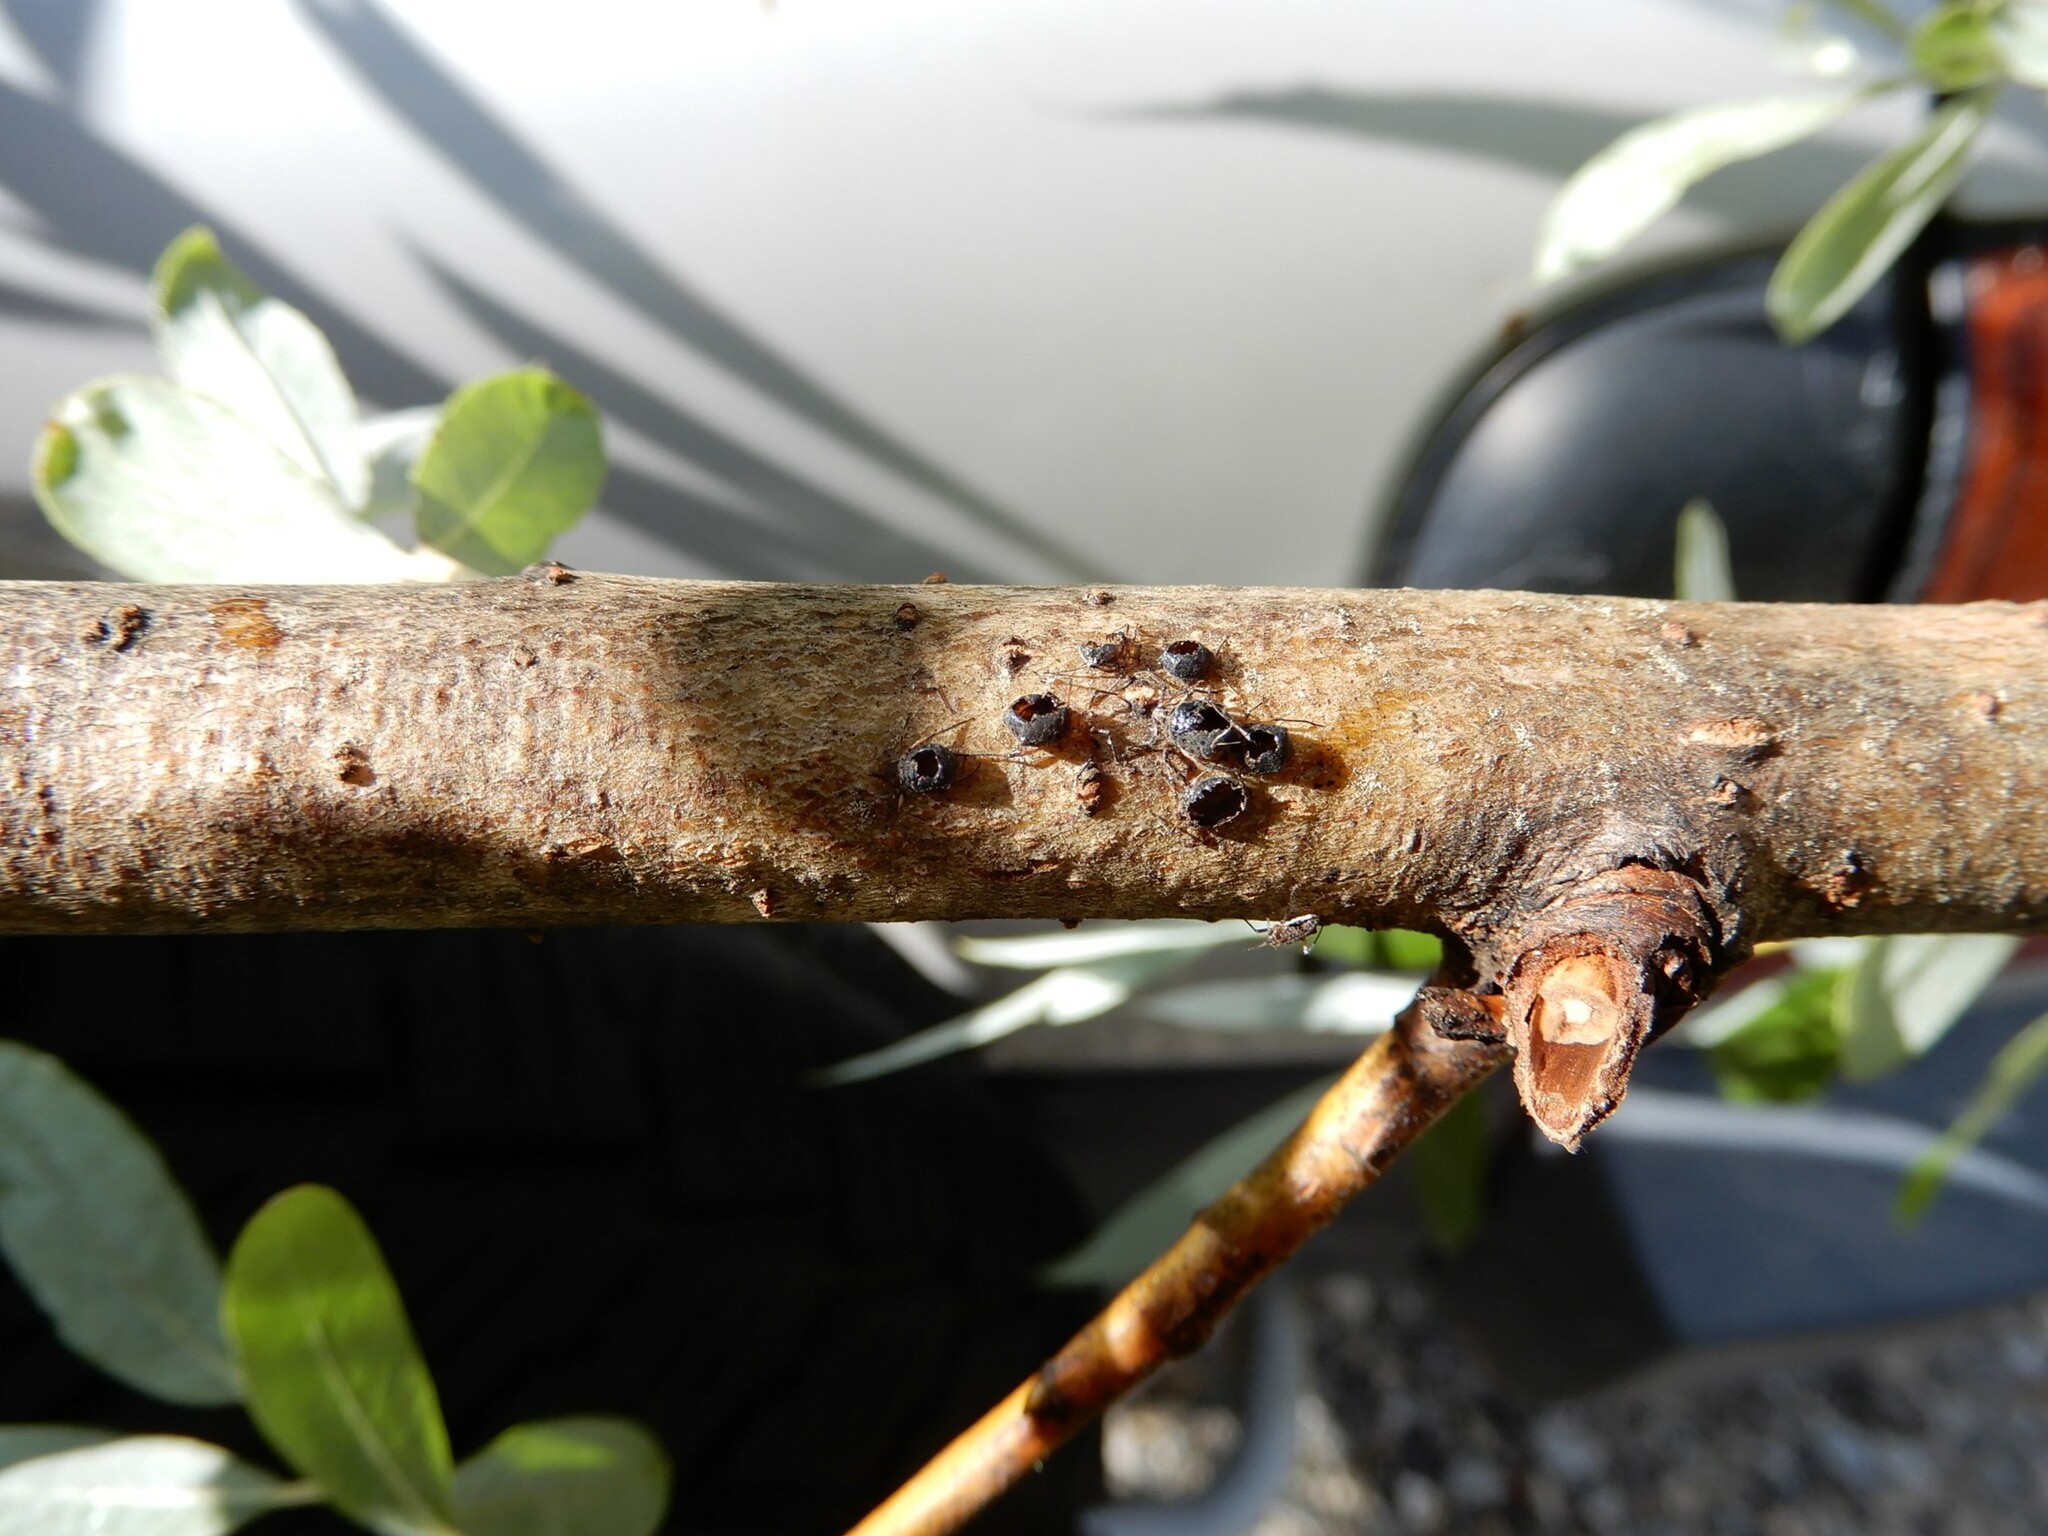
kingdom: Animalia
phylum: Arthropoda
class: Insecta
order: Hymenoptera
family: Braconidae
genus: Pauesia
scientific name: Pauesia nigrovaria
